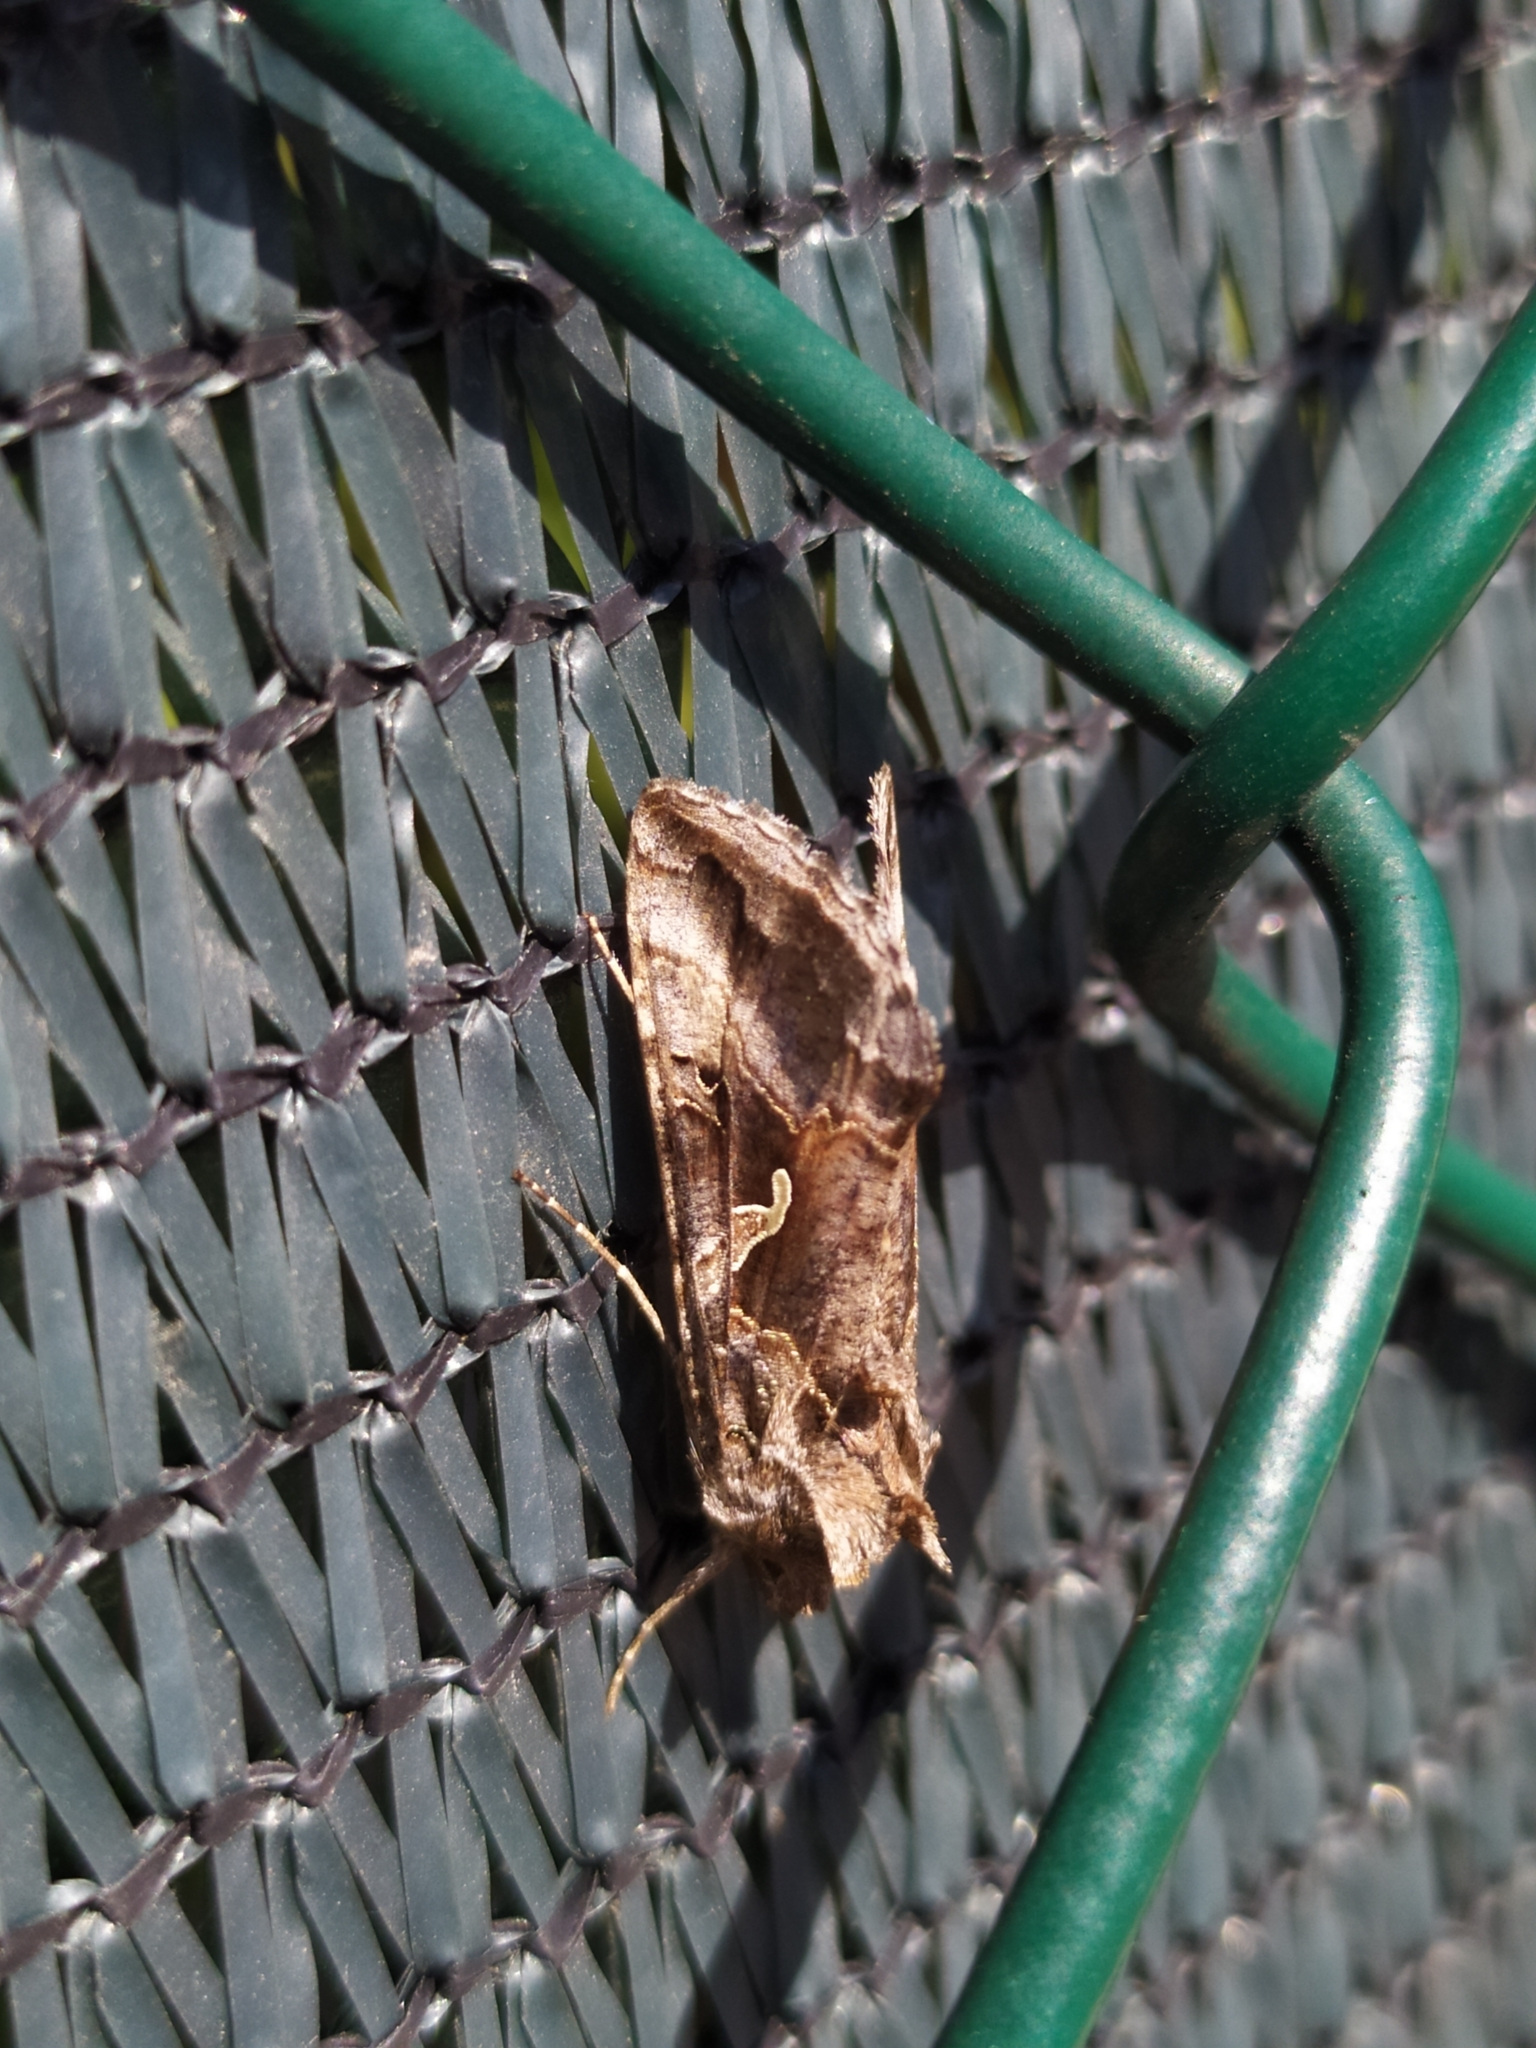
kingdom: Animalia
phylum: Arthropoda
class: Insecta
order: Lepidoptera
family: Noctuidae
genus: Autographa
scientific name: Autographa gamma
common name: Silver y
